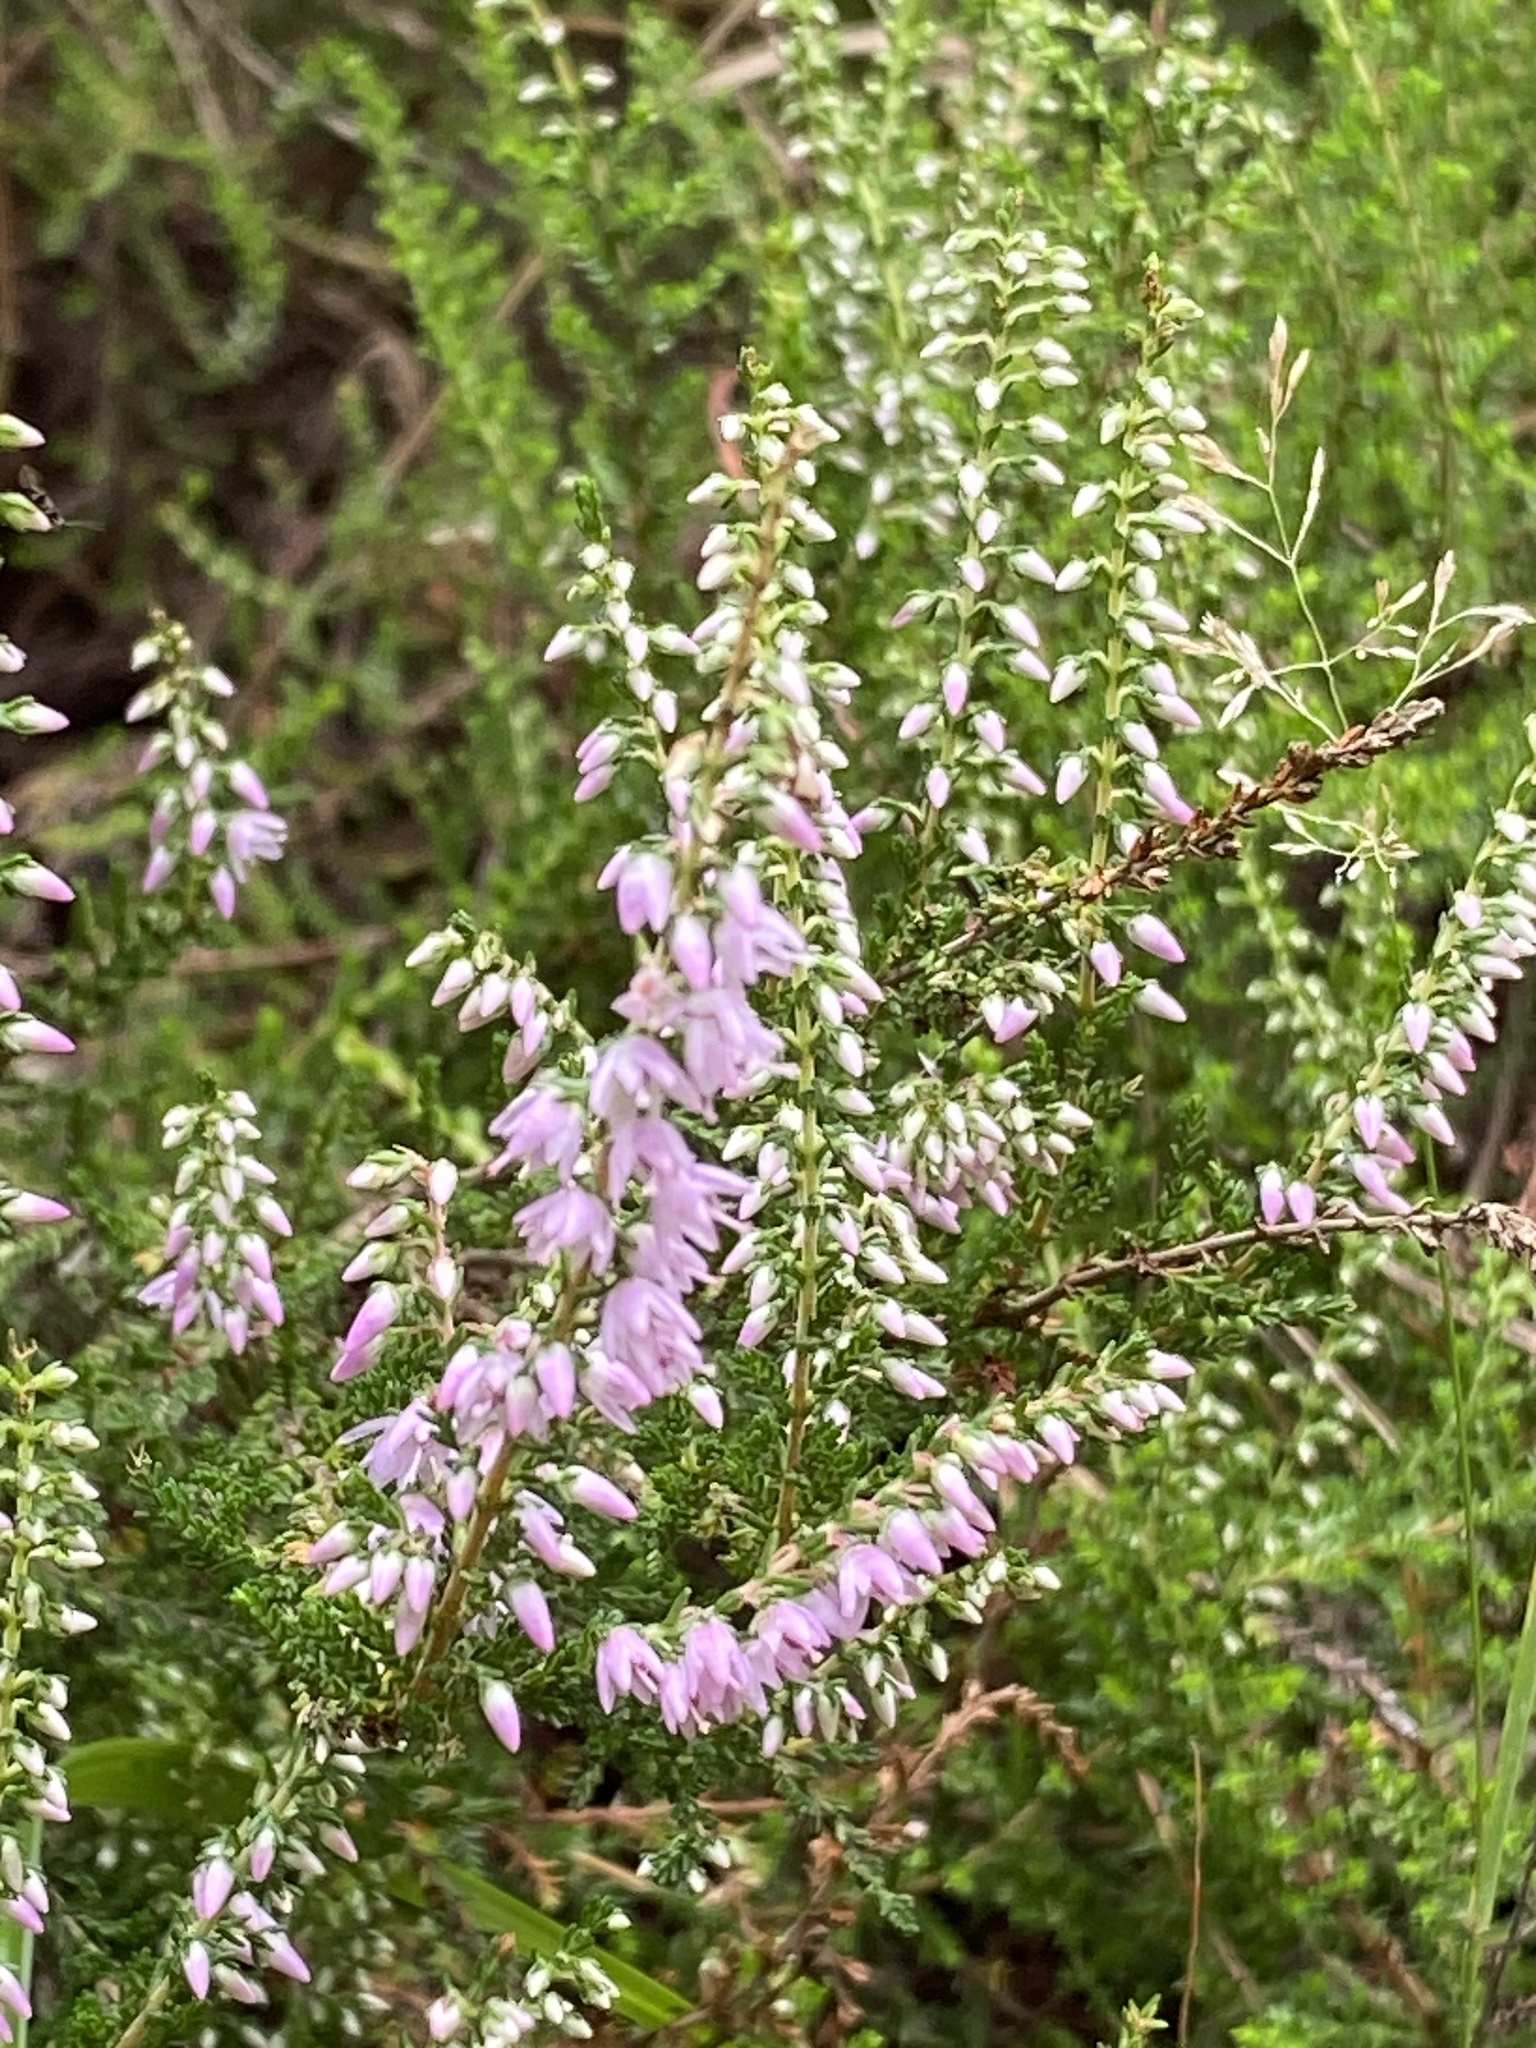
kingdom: Plantae
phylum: Tracheophyta
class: Magnoliopsida
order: Ericales
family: Ericaceae
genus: Calluna
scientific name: Calluna vulgaris
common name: Heather
